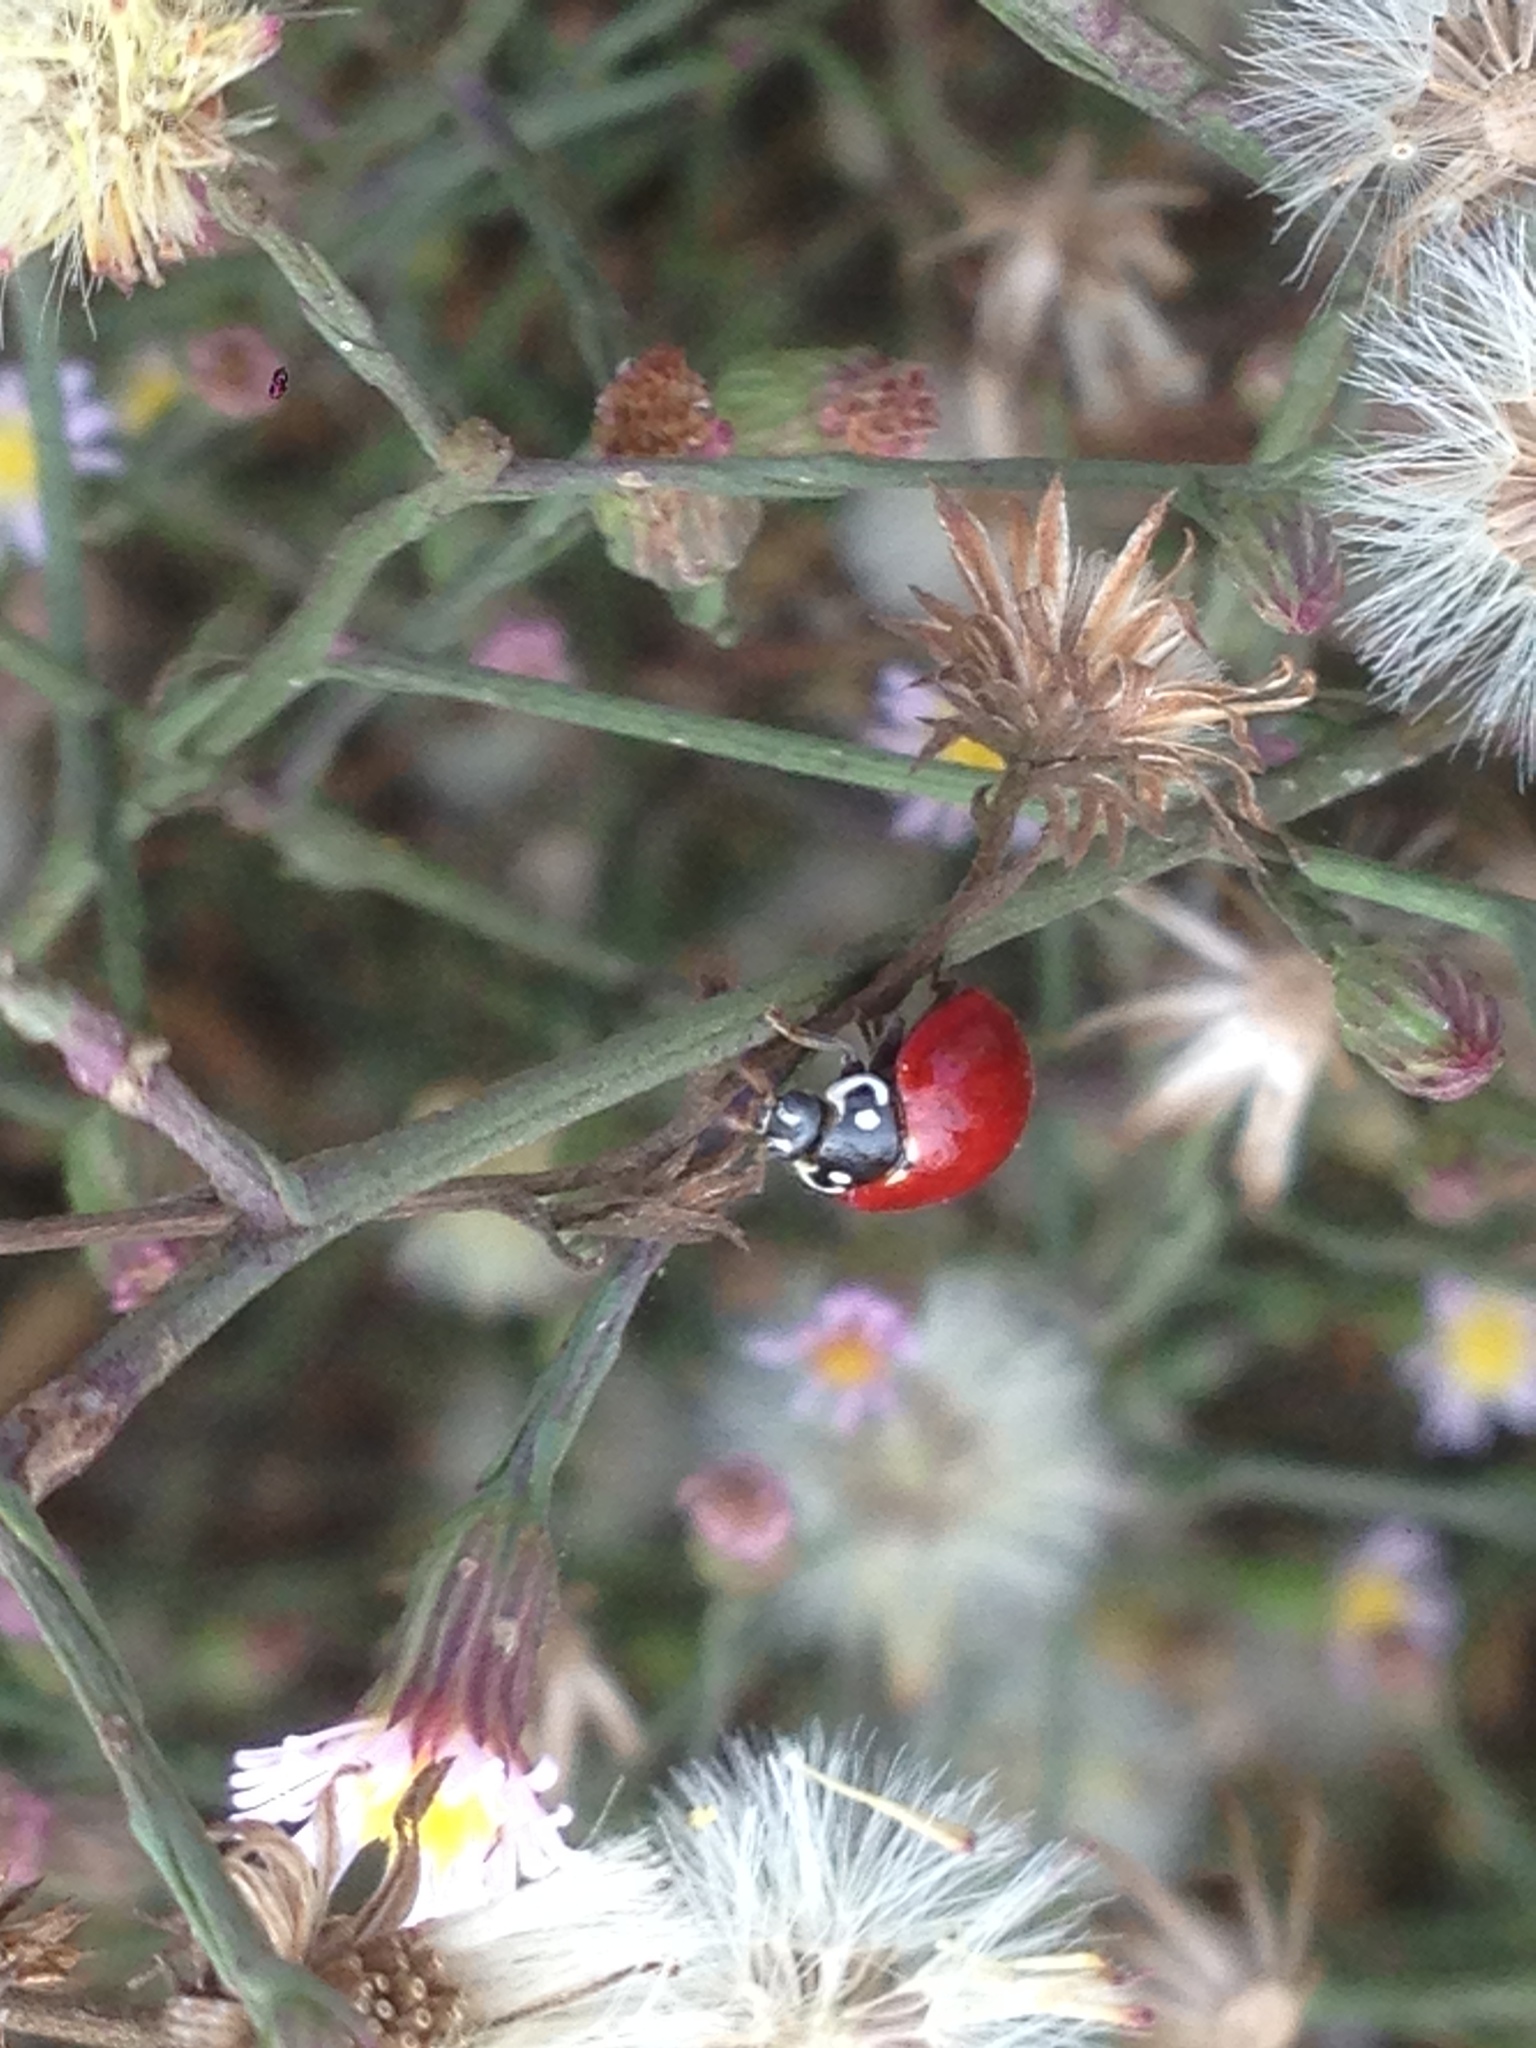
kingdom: Animalia
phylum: Arthropoda
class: Insecta
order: Coleoptera
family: Coccinellidae
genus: Cycloneda
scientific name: Cycloneda sanguinea
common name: Ladybird beetle
